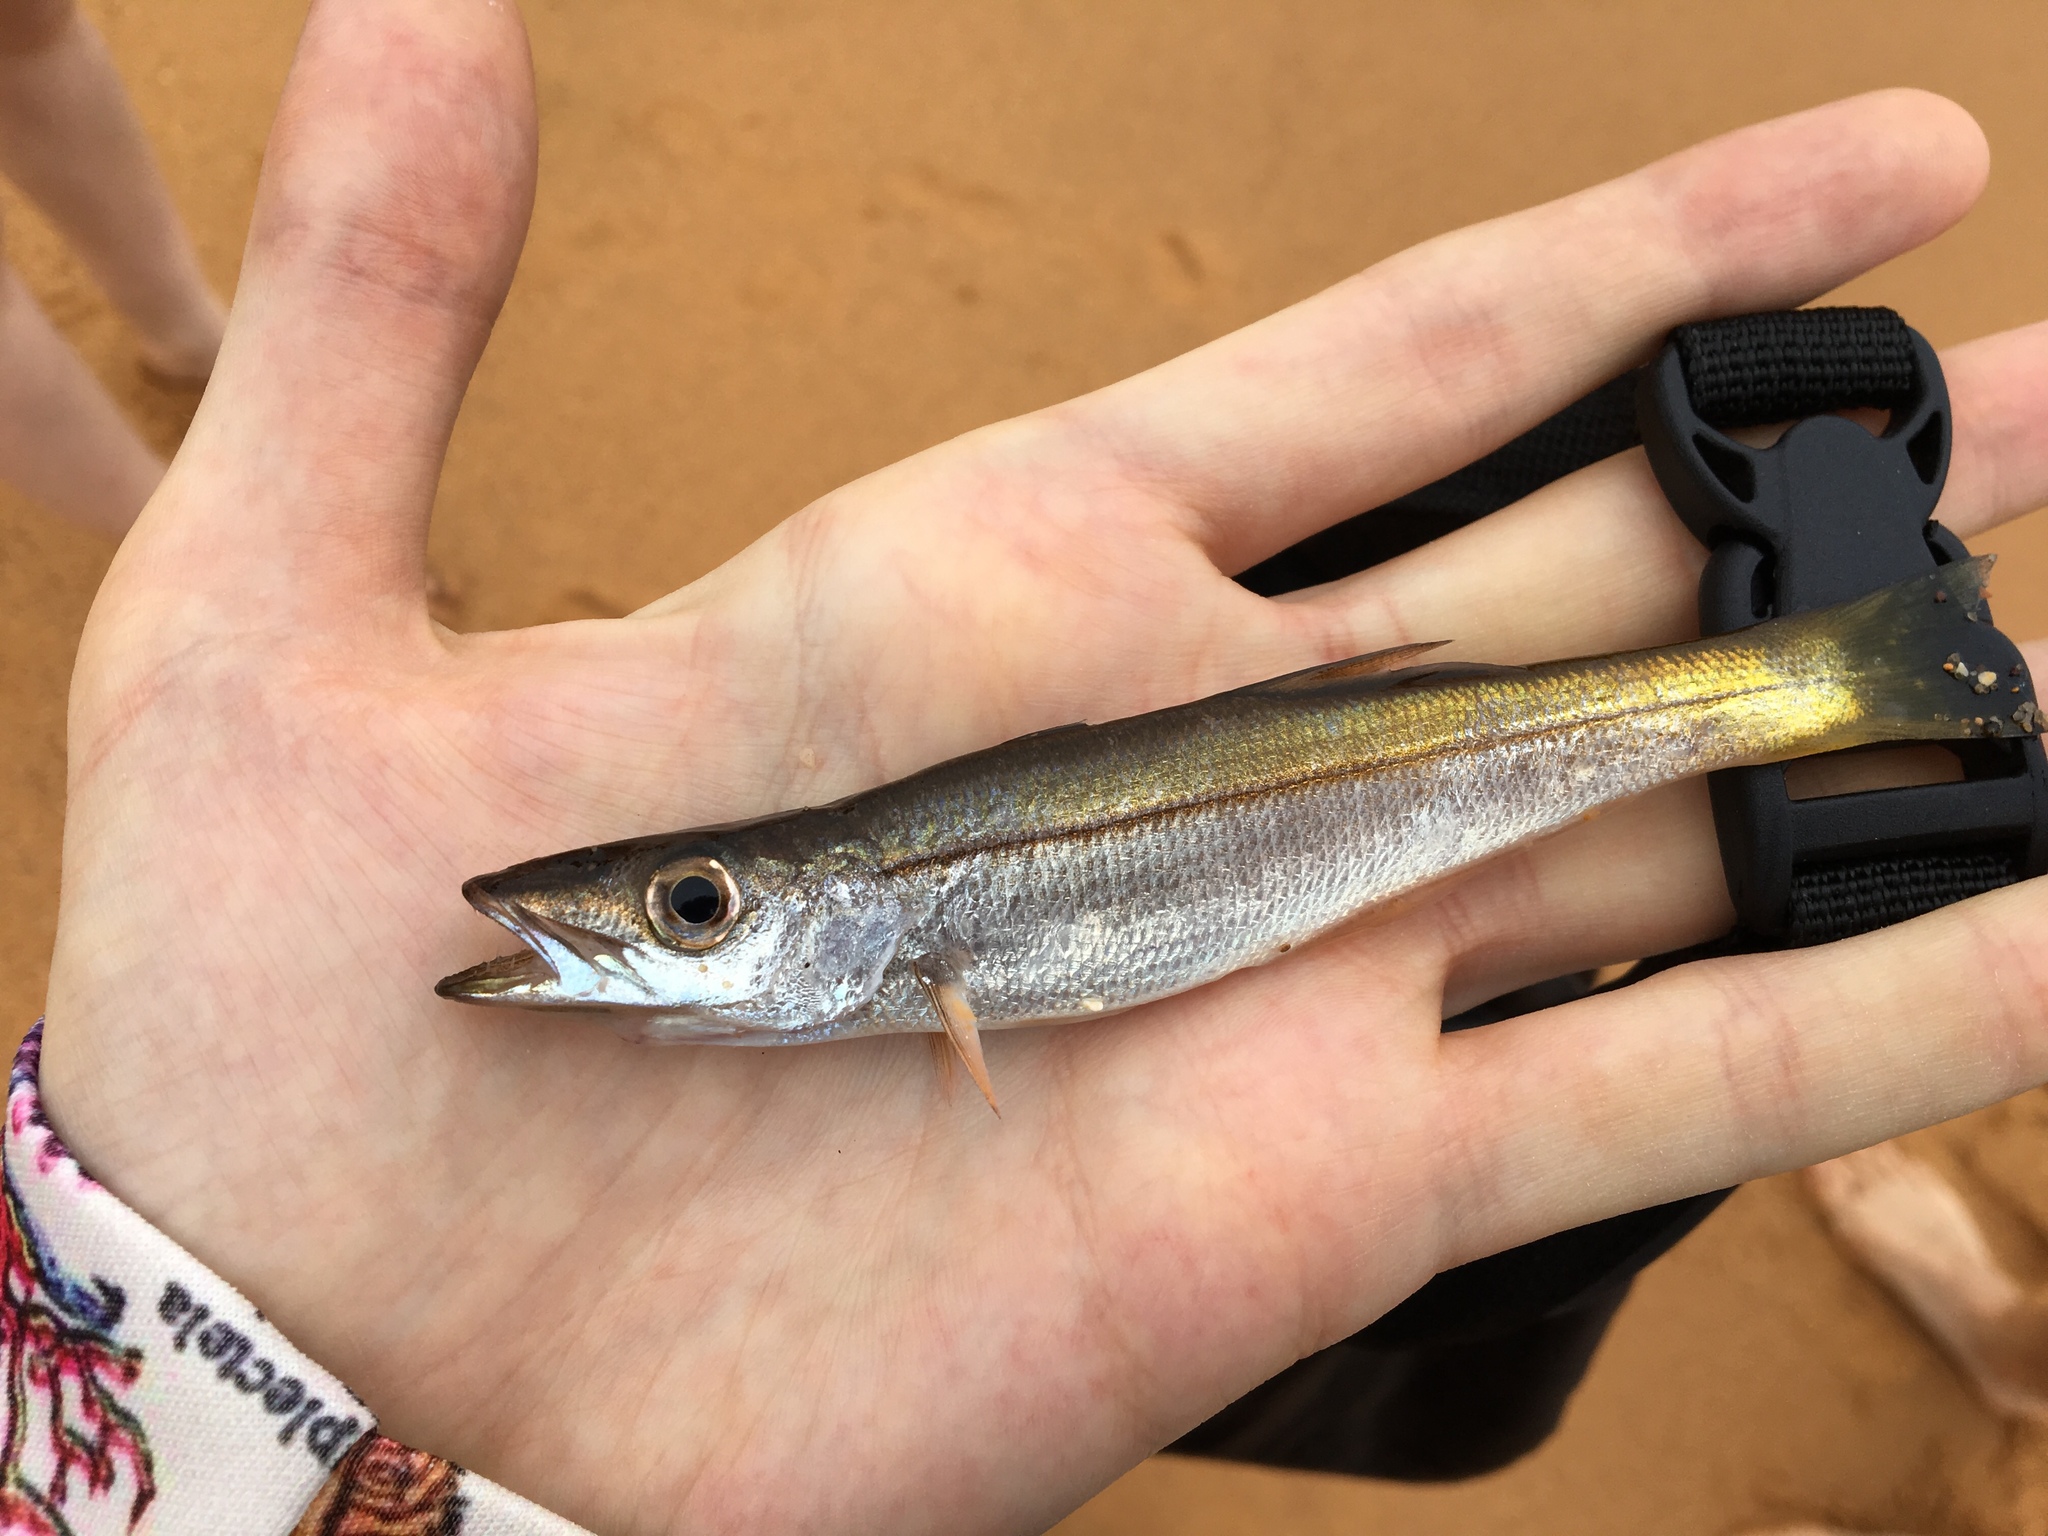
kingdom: Animalia
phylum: Chordata
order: Perciformes
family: Dinolestidae
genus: Dinolestes
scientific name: Dinolestes lewini
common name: Jack pike
